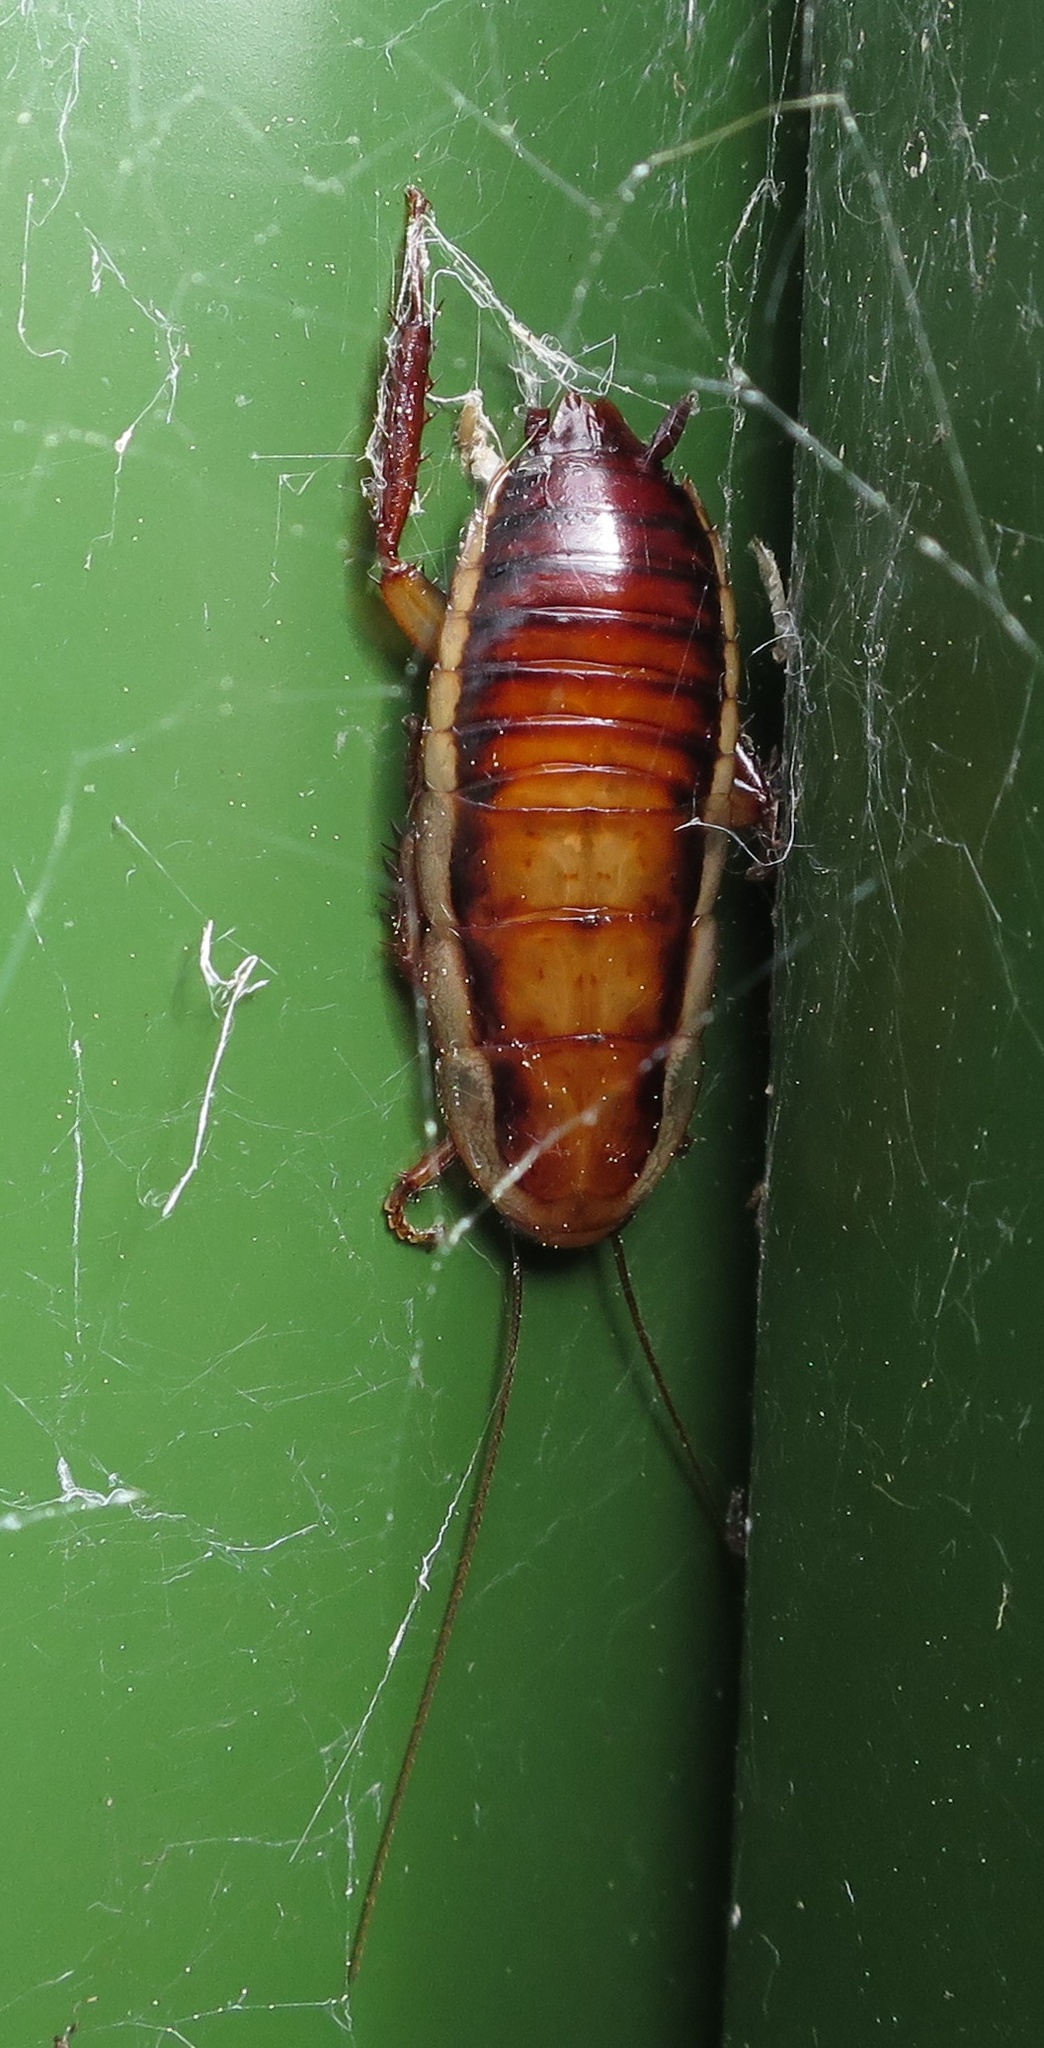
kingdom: Animalia
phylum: Arthropoda
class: Insecta
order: Blattodea
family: Blattidae
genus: Drymaplaneta
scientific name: Drymaplaneta heydeniana
